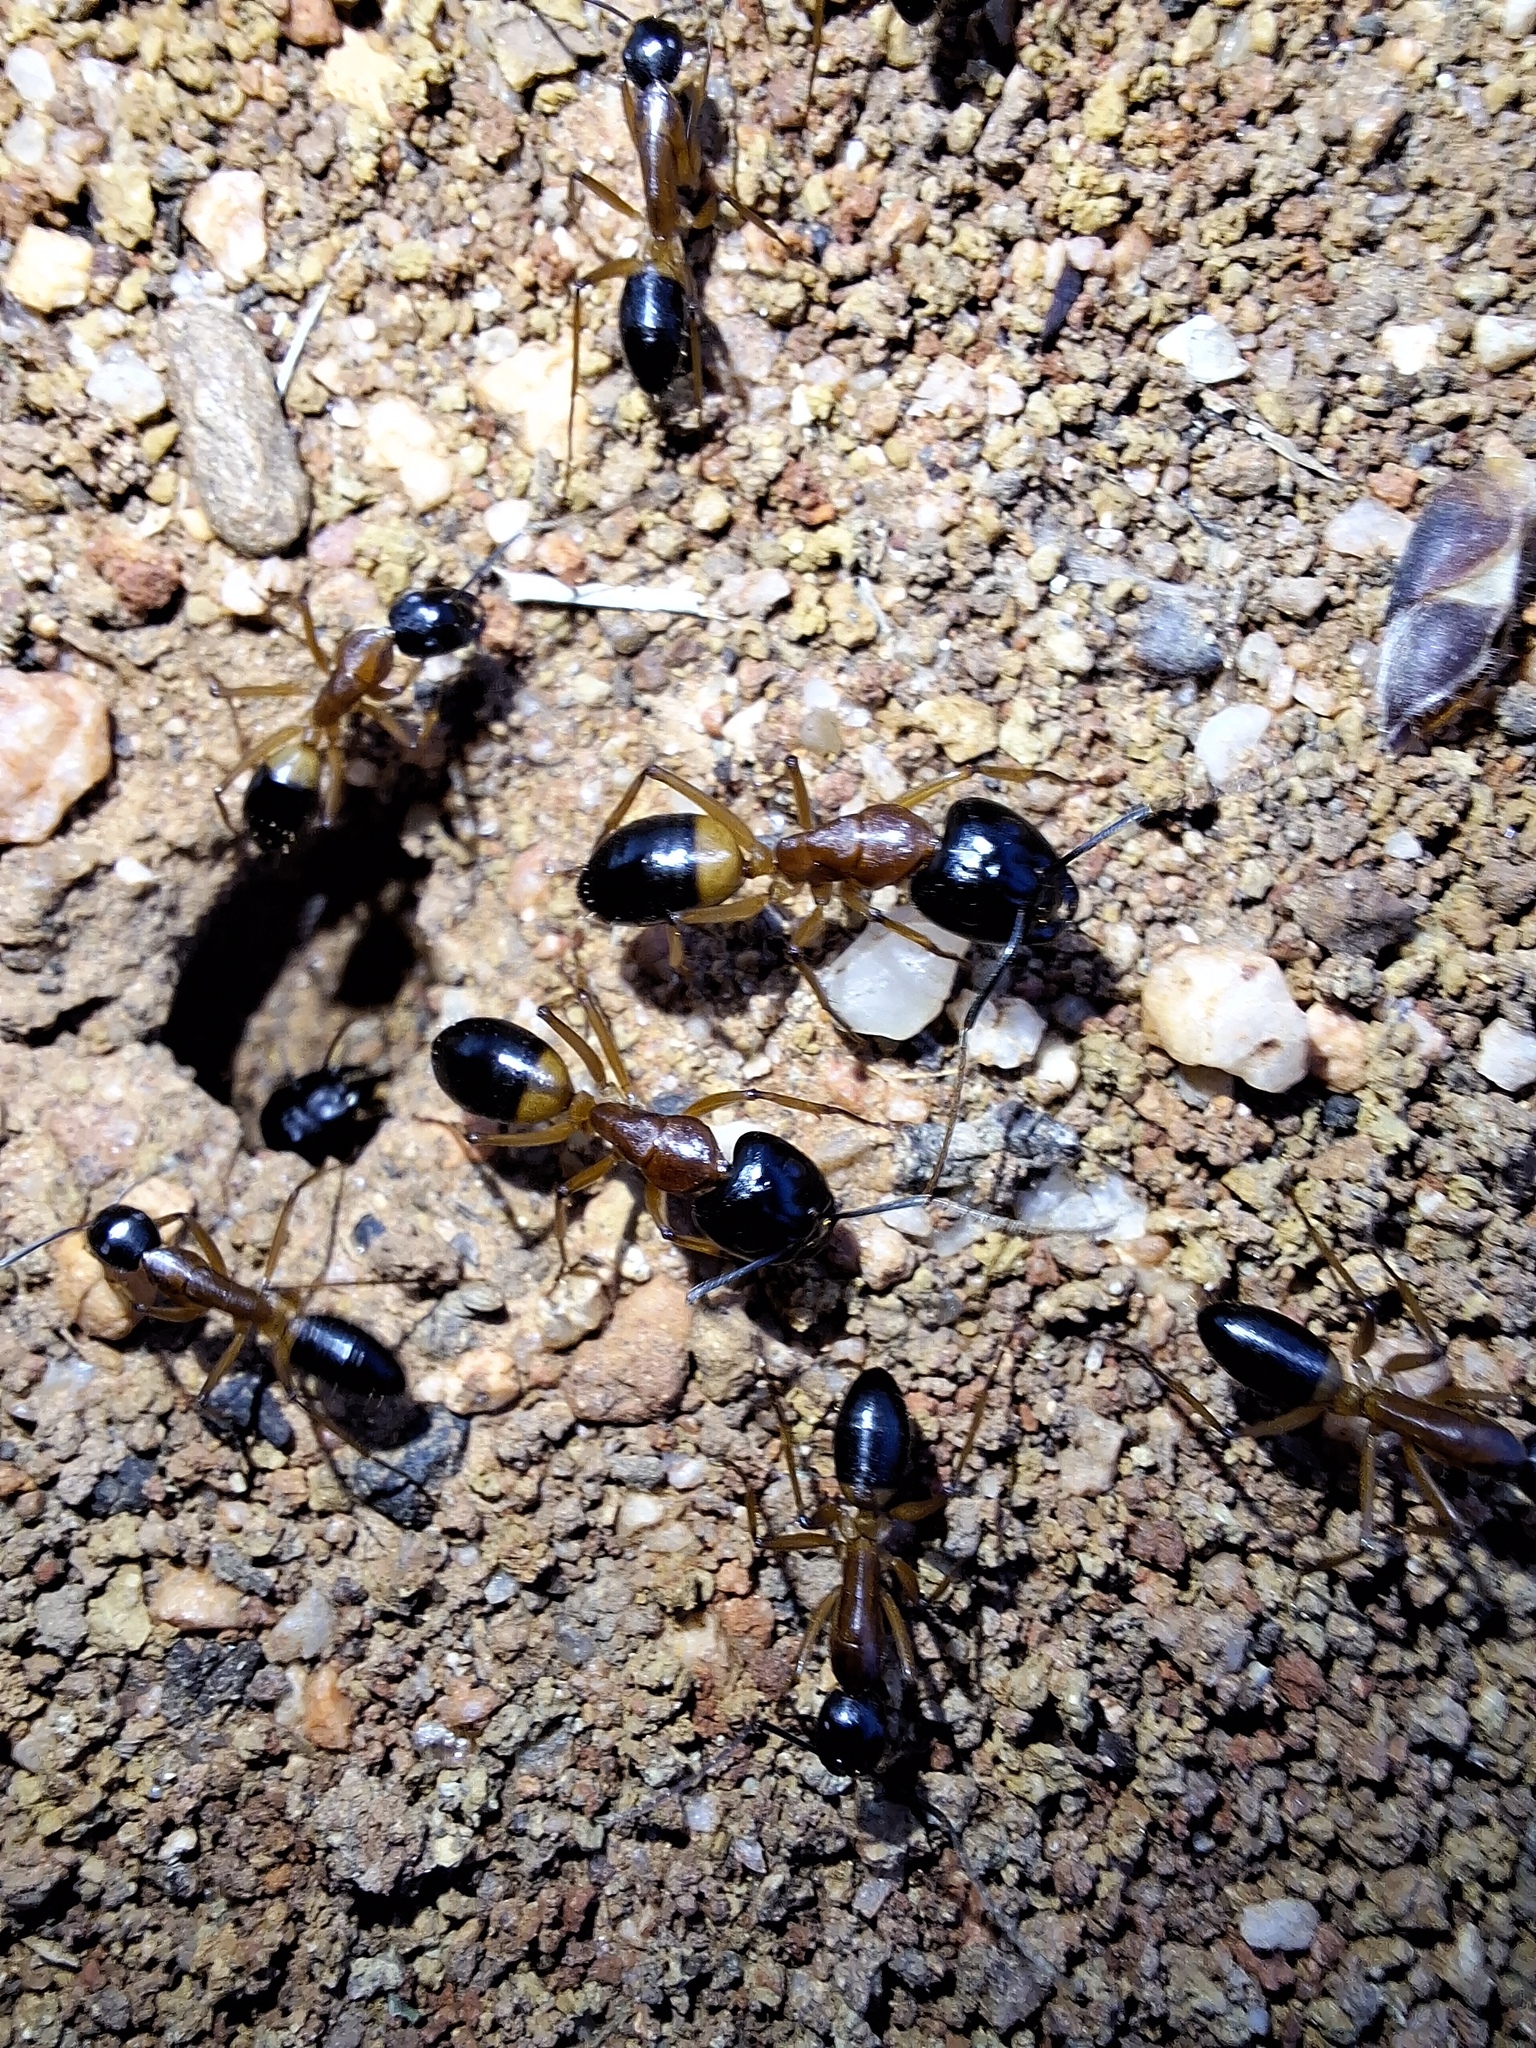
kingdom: Animalia
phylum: Arthropoda
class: Insecta
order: Hymenoptera
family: Formicidae
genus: Camponotus
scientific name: Camponotus consobrinus
